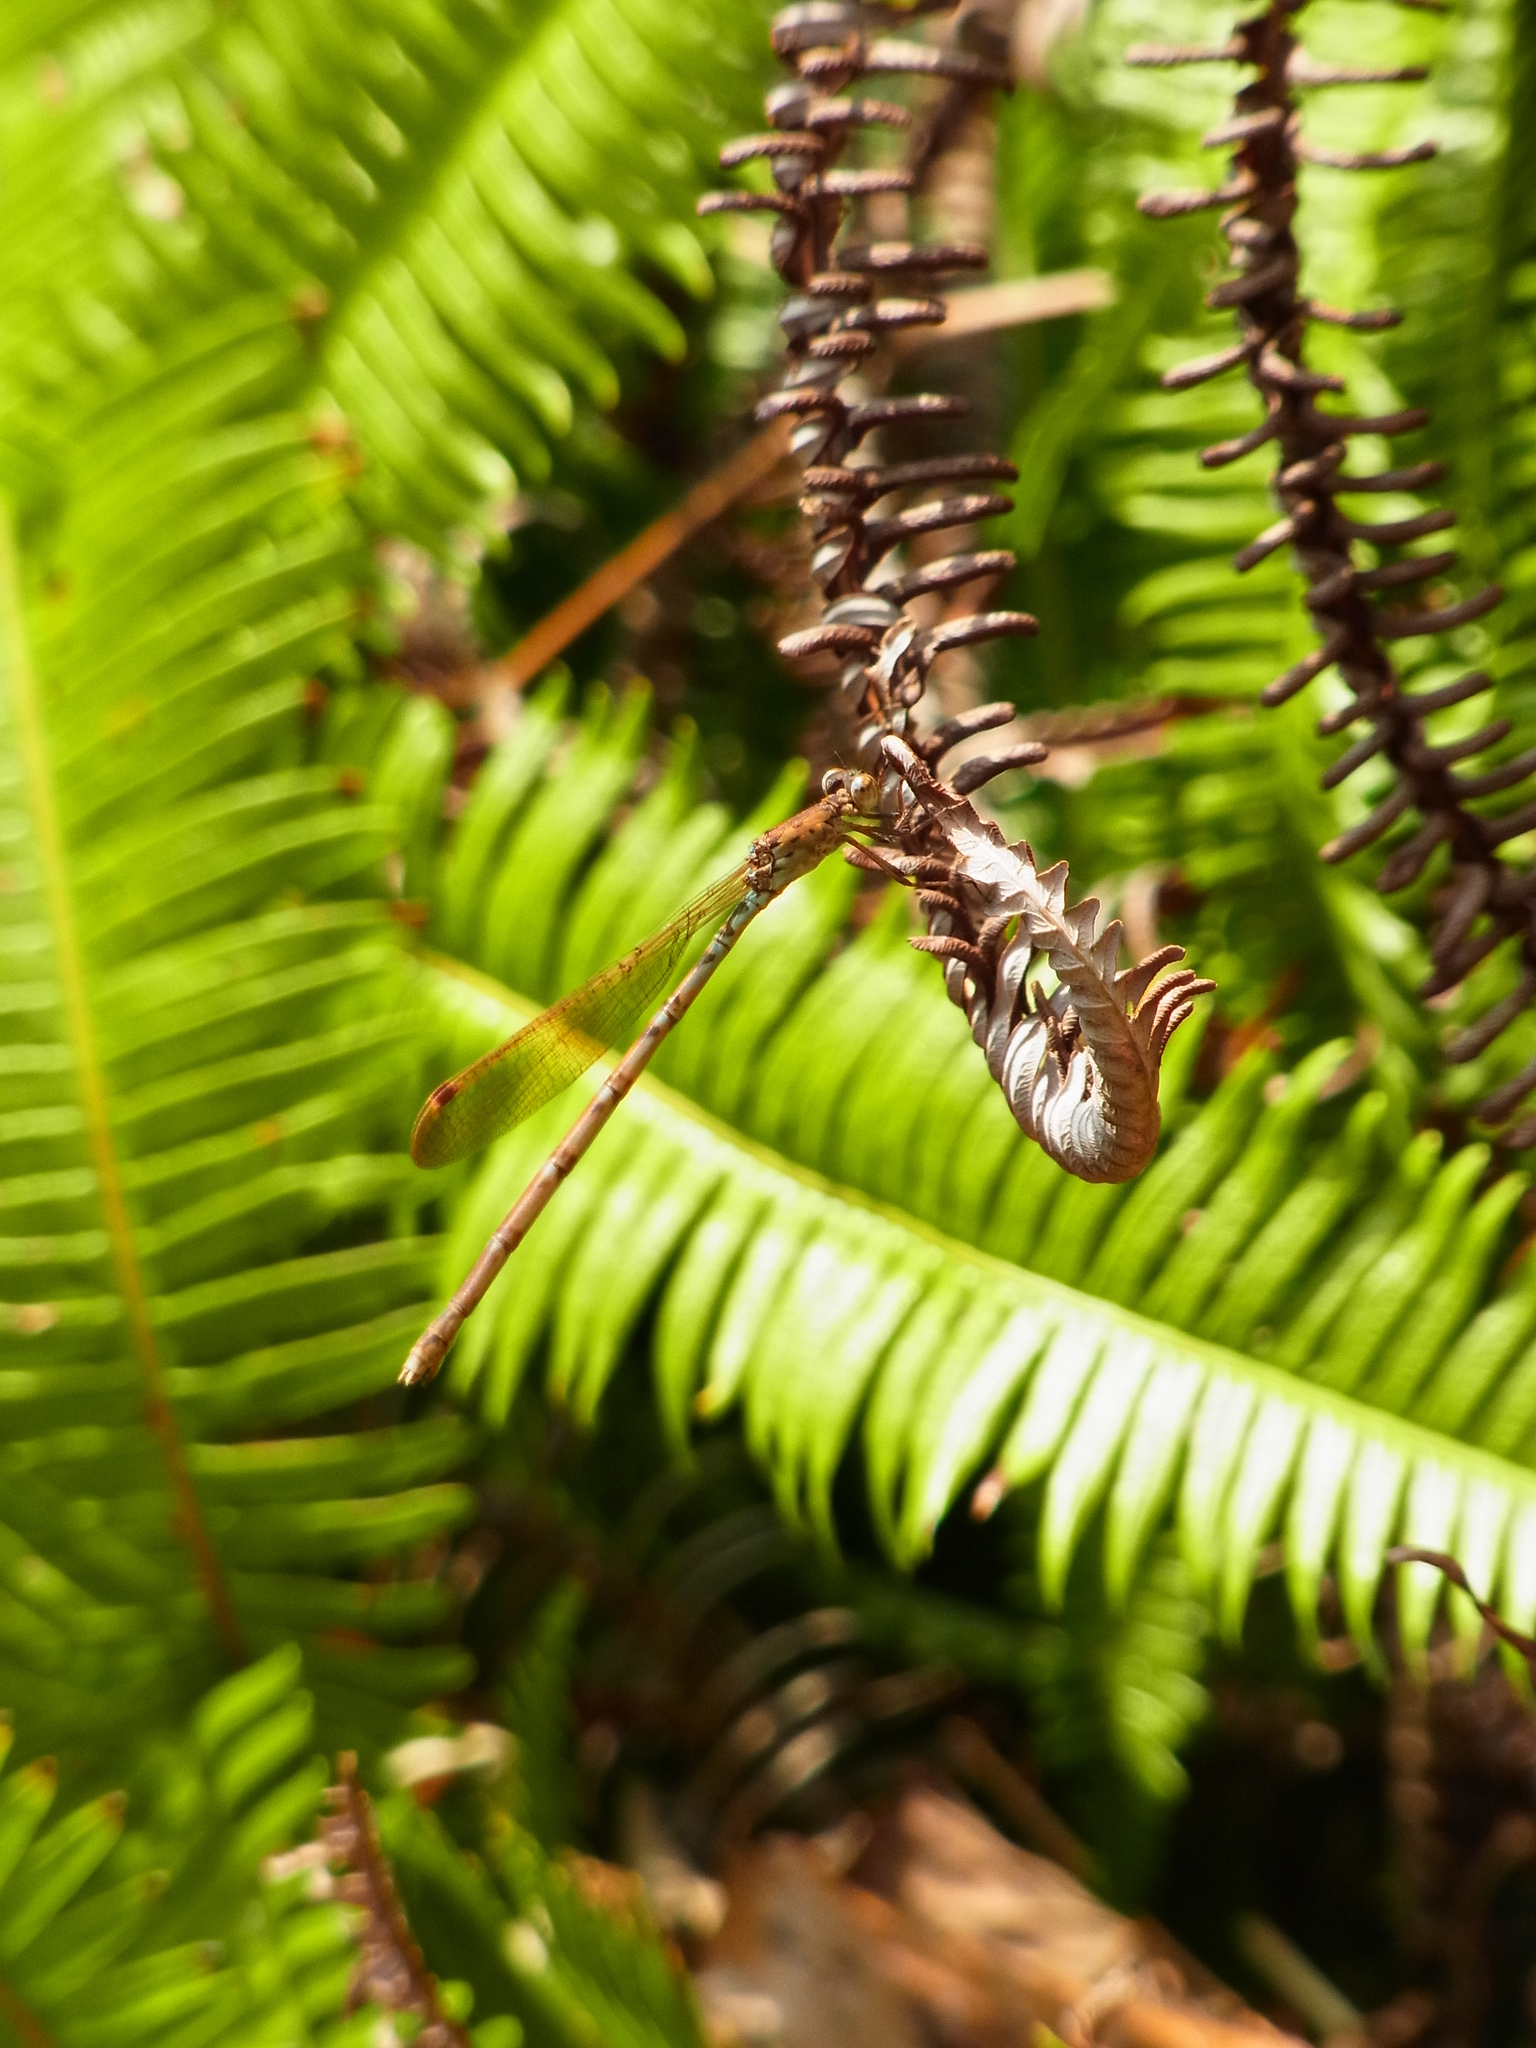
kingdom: Animalia
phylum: Arthropoda
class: Insecta
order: Odonata
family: Lestidae
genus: Indolestes
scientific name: Indolestes peregrinus
